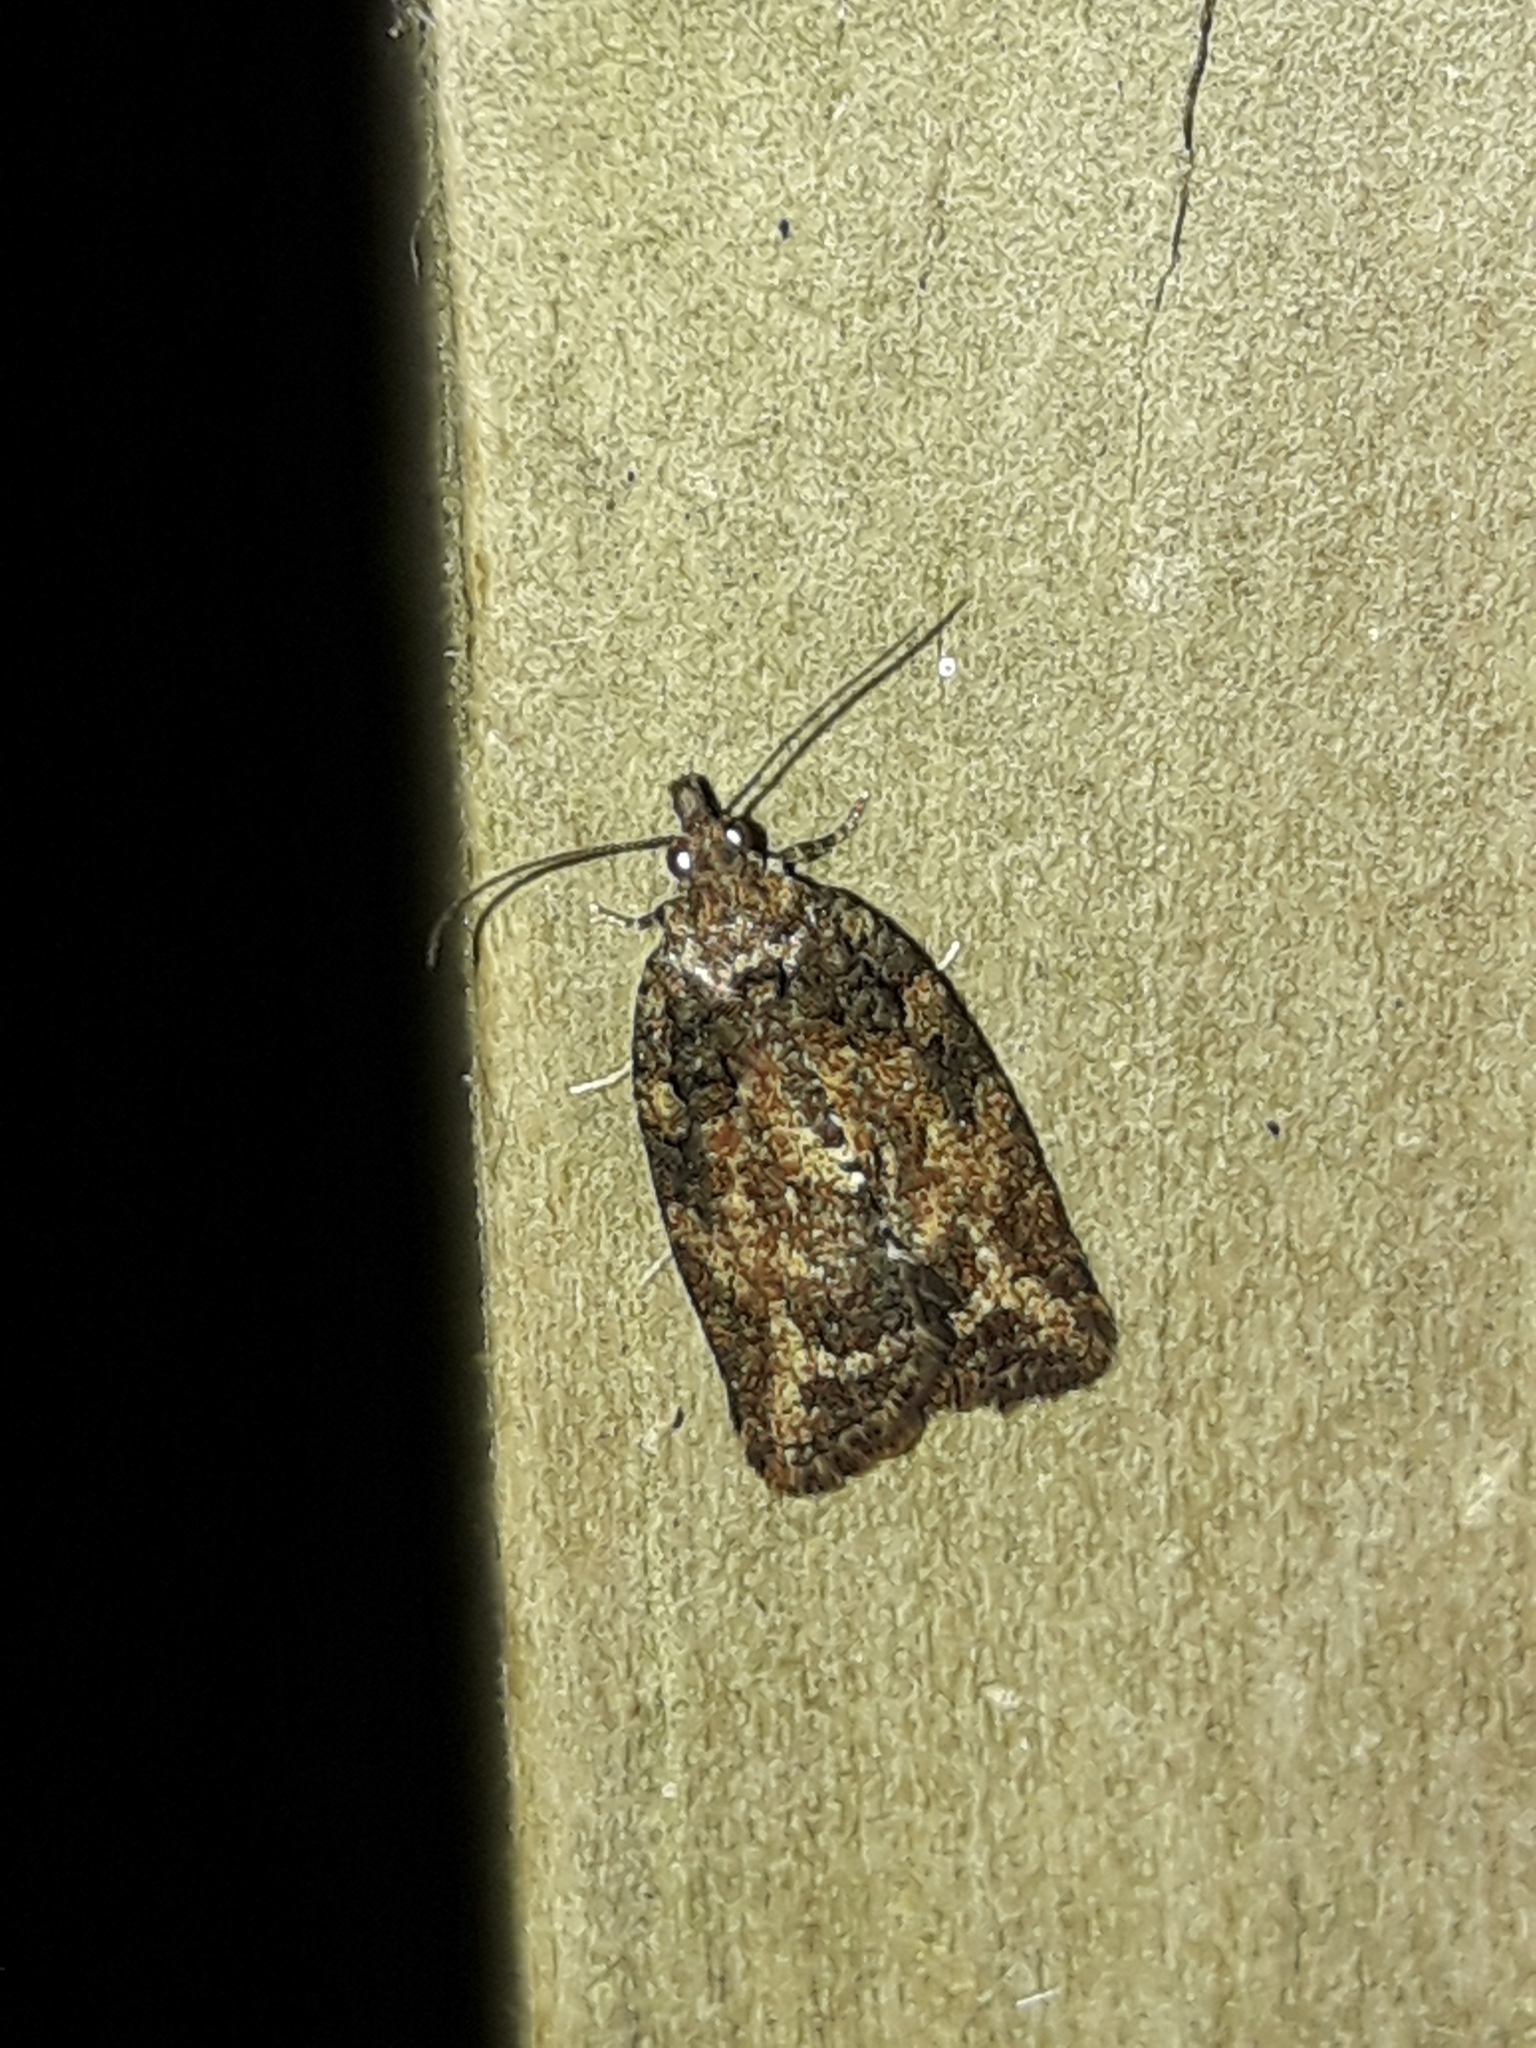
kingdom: Animalia
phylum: Arthropoda
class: Insecta
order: Lepidoptera
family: Tortricidae
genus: Capua
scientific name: Capua intractana
